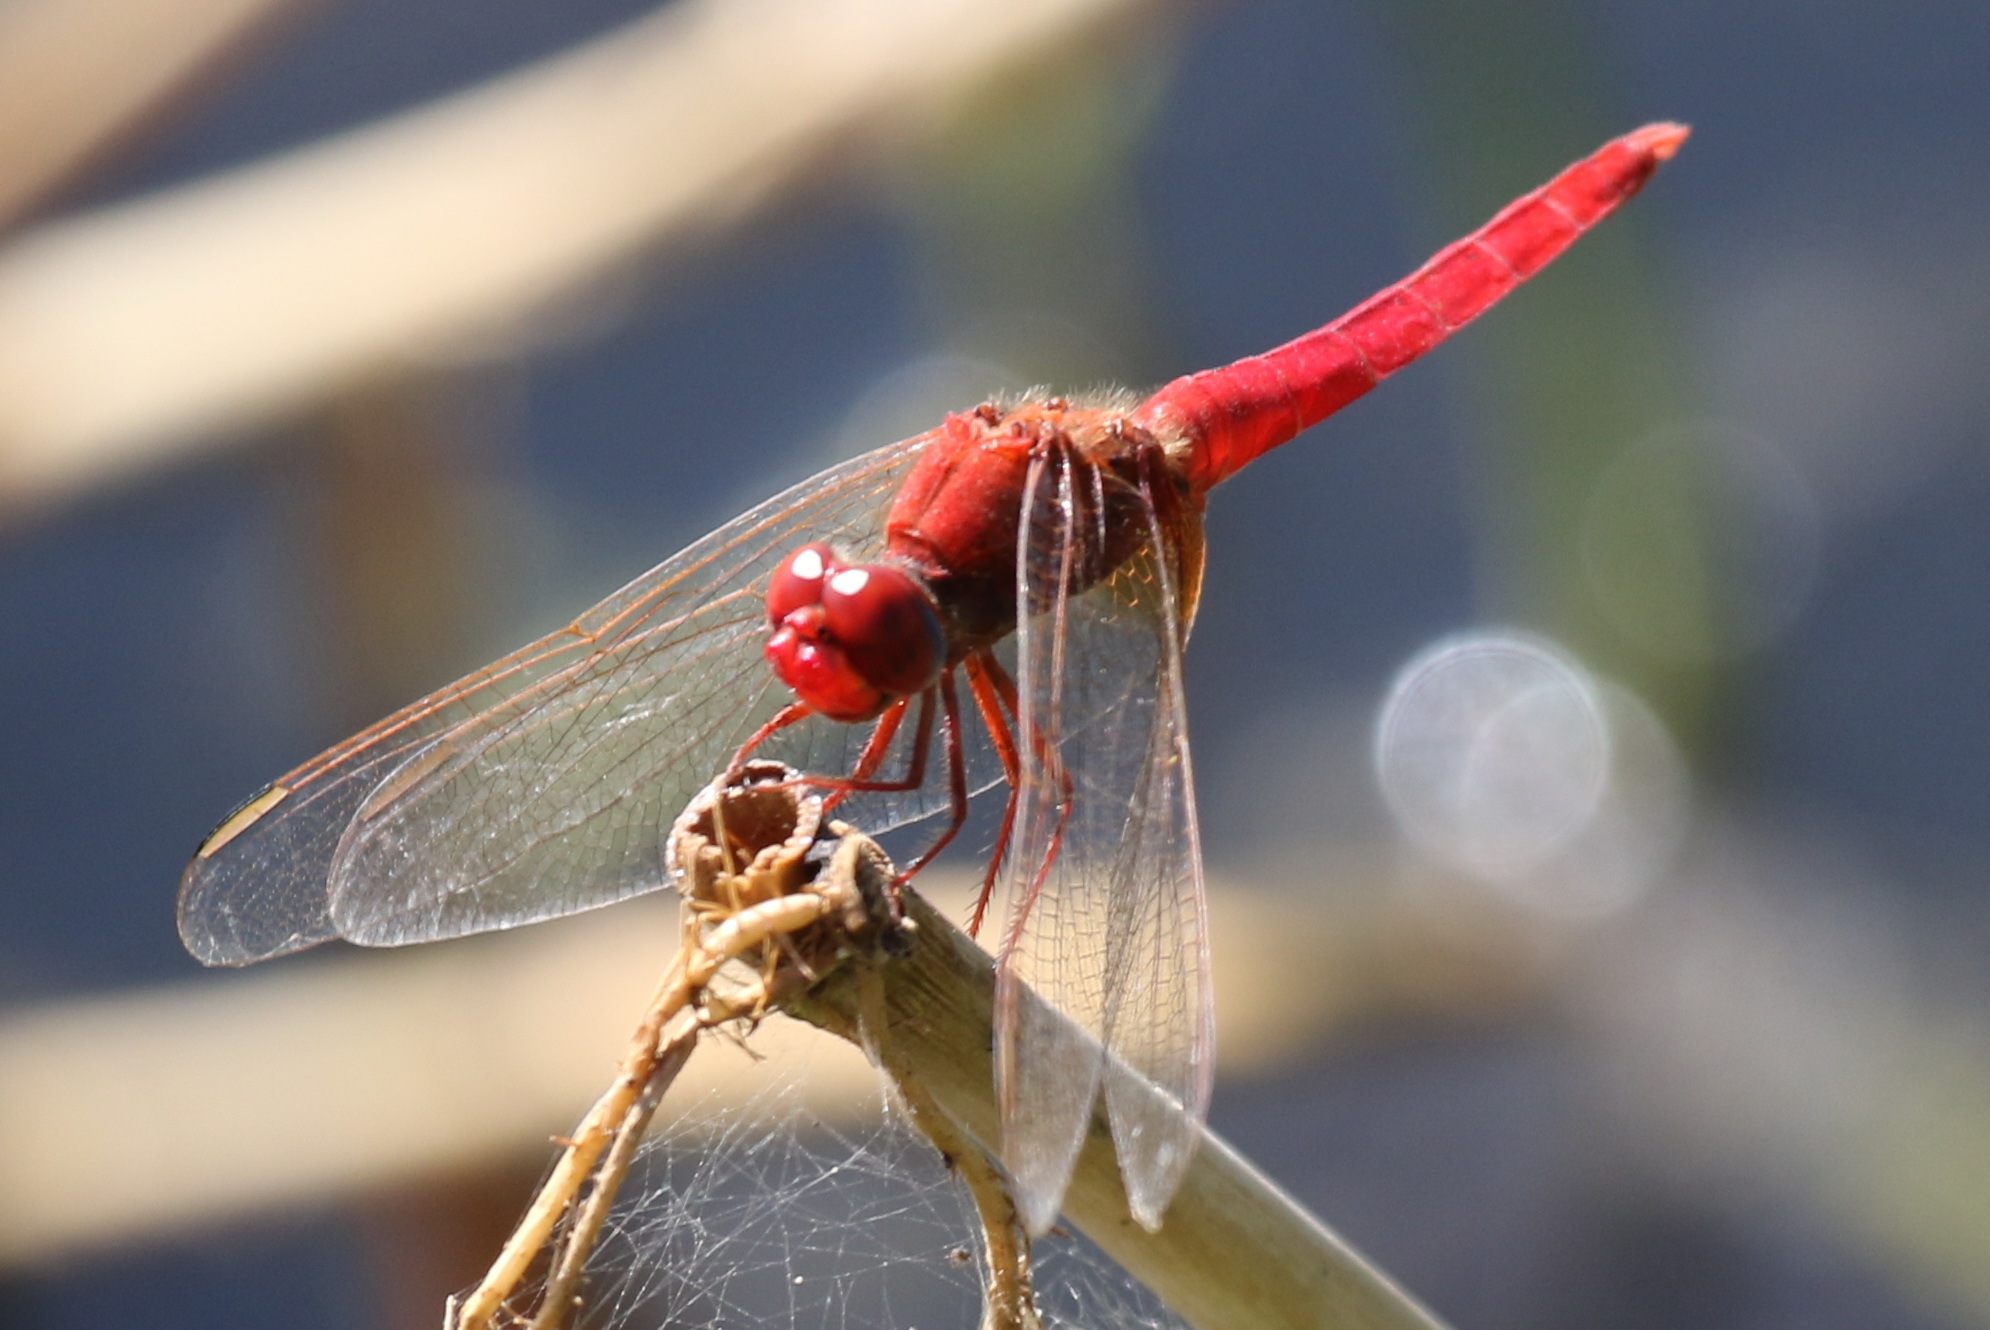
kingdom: Animalia
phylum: Arthropoda
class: Insecta
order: Odonata
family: Libellulidae
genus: Crocothemis
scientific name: Crocothemis erythraea
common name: Scarlet dragonfly
